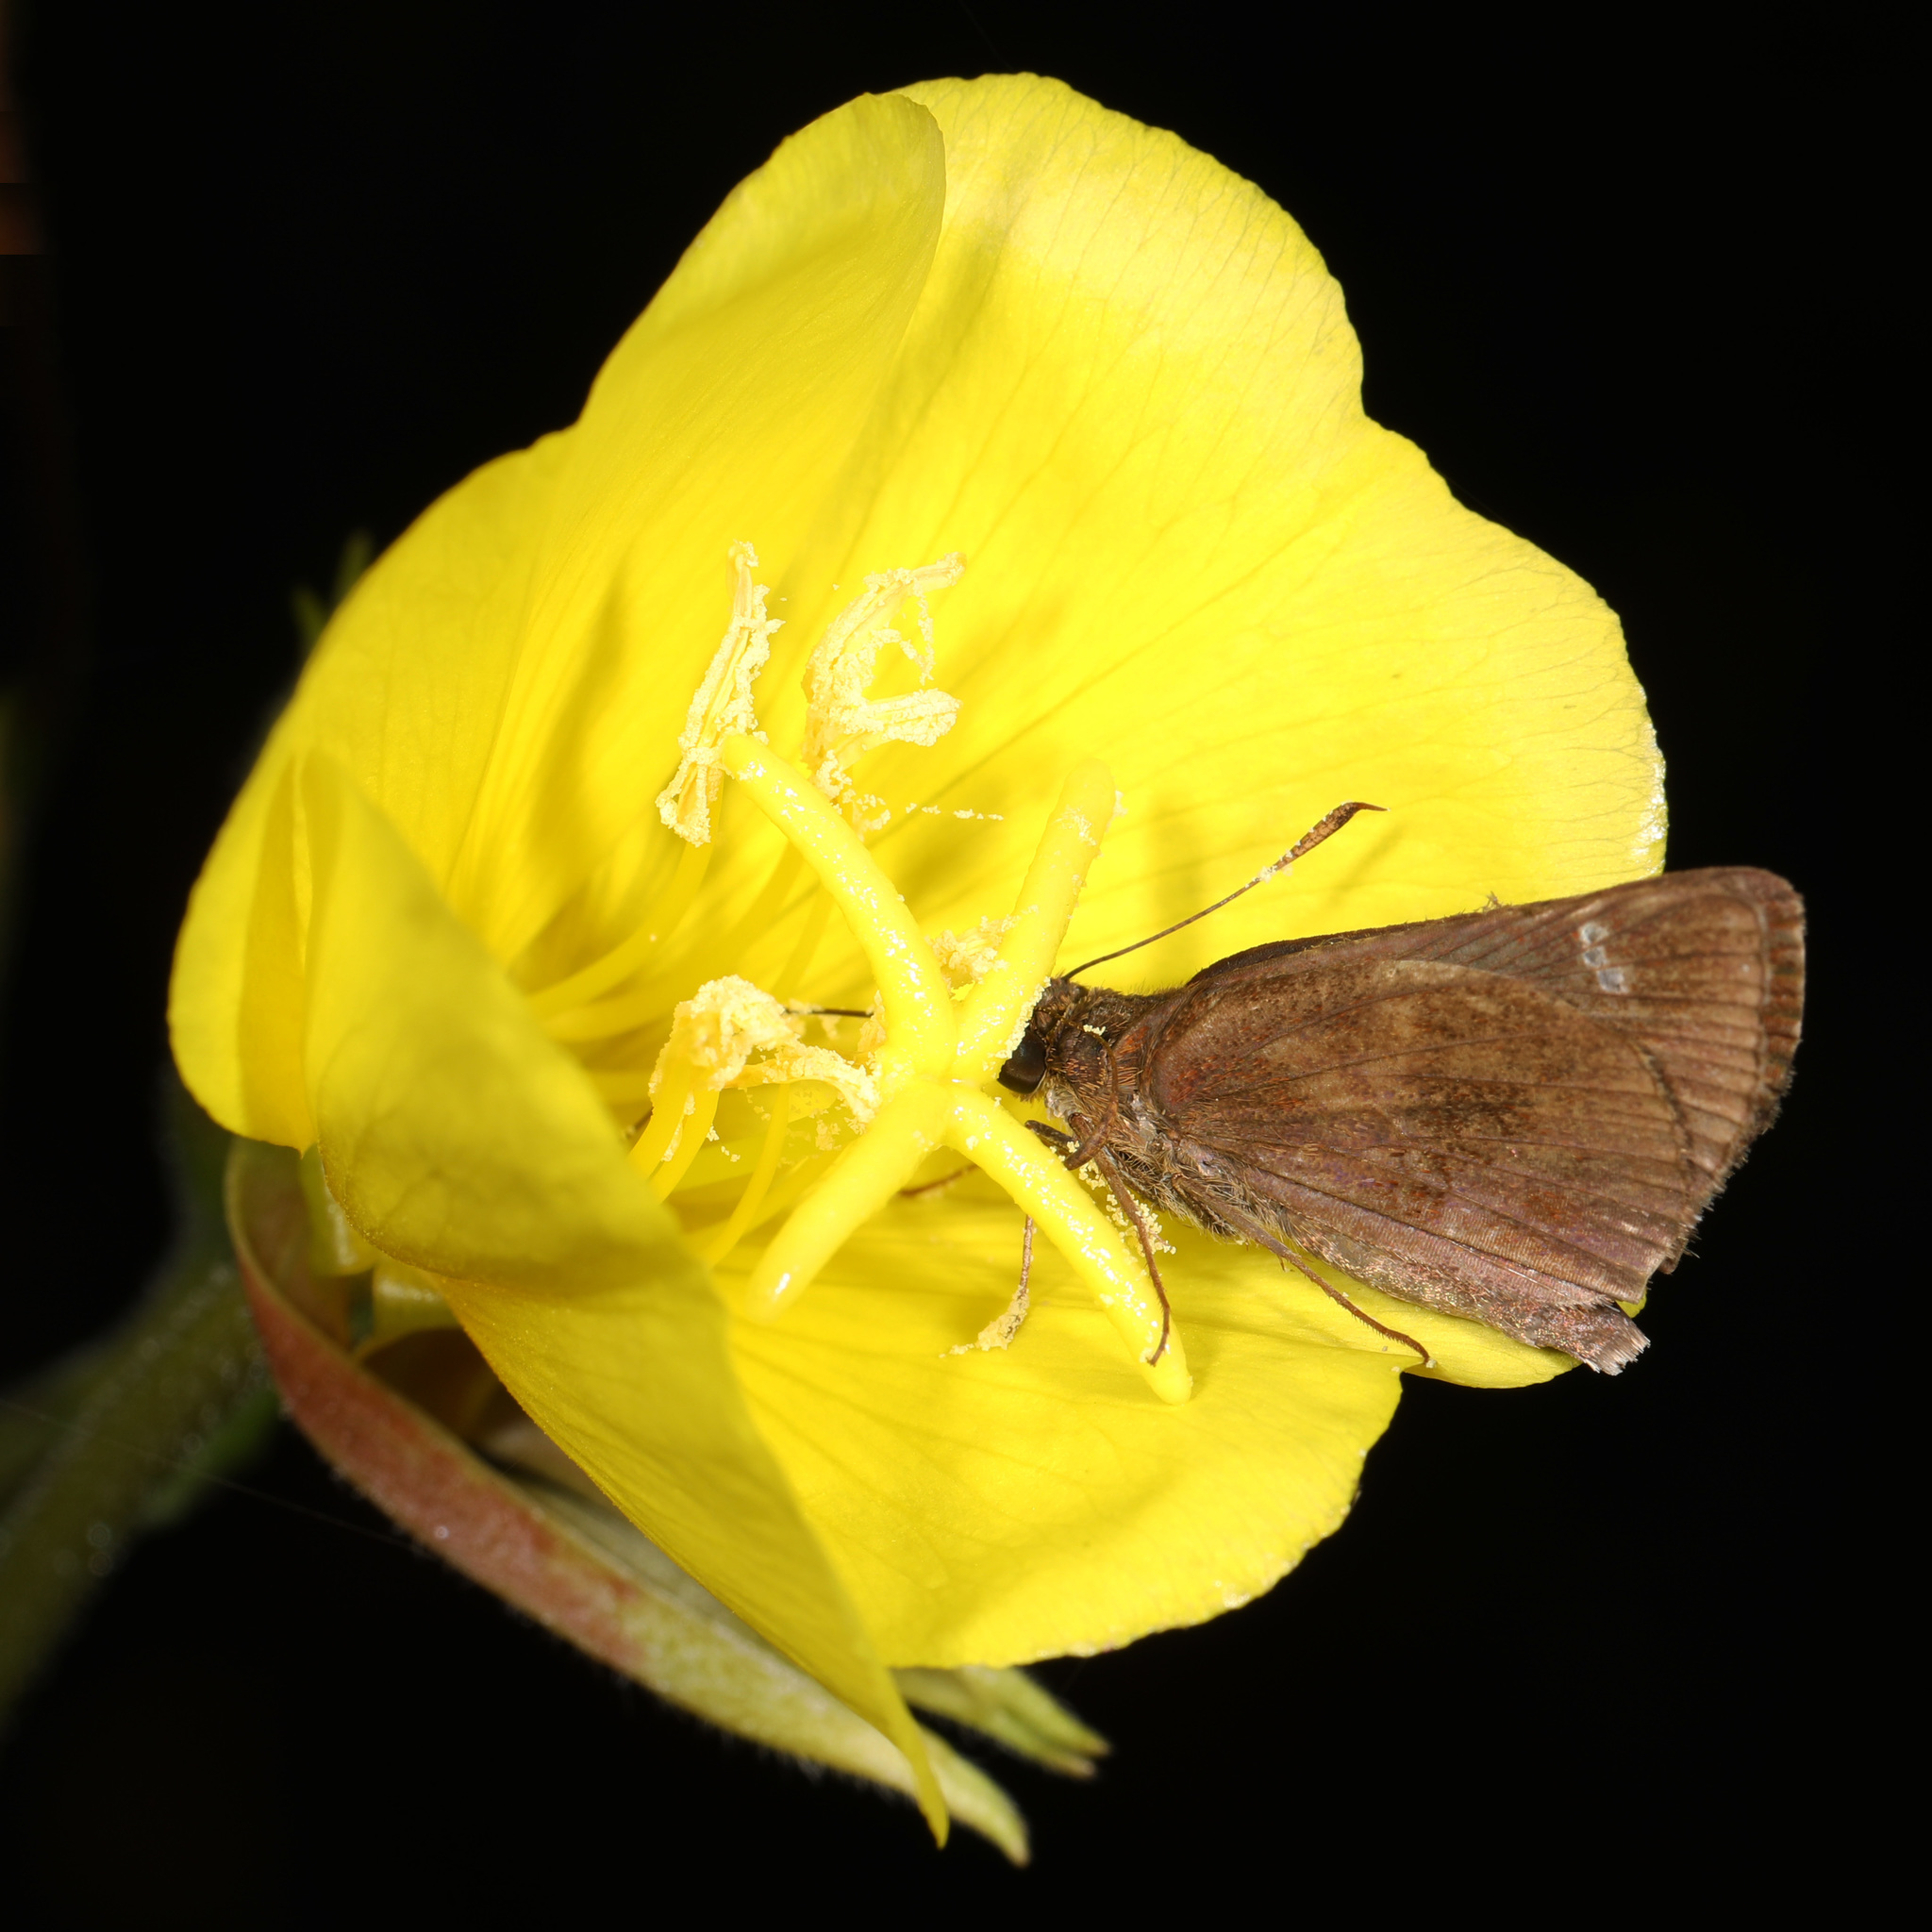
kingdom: Animalia
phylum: Arthropoda
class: Insecta
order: Lepidoptera
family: Hesperiidae
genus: Lerema
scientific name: Lerema accius
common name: Clouded skipper
